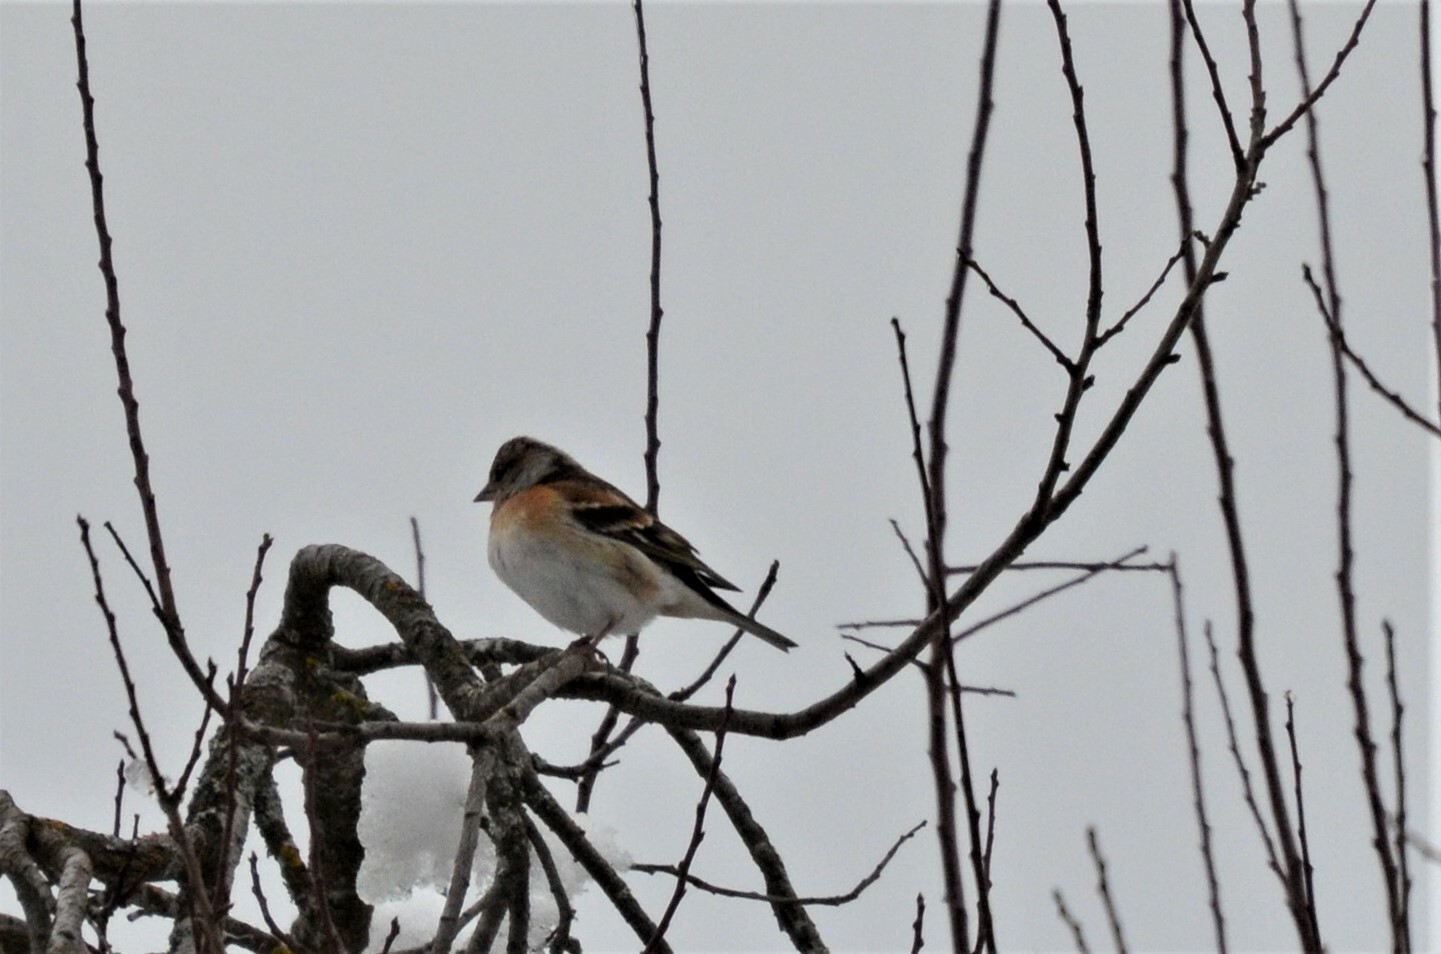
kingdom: Animalia
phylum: Chordata
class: Aves
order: Passeriformes
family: Fringillidae
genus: Fringilla
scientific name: Fringilla montifringilla
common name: Brambling
